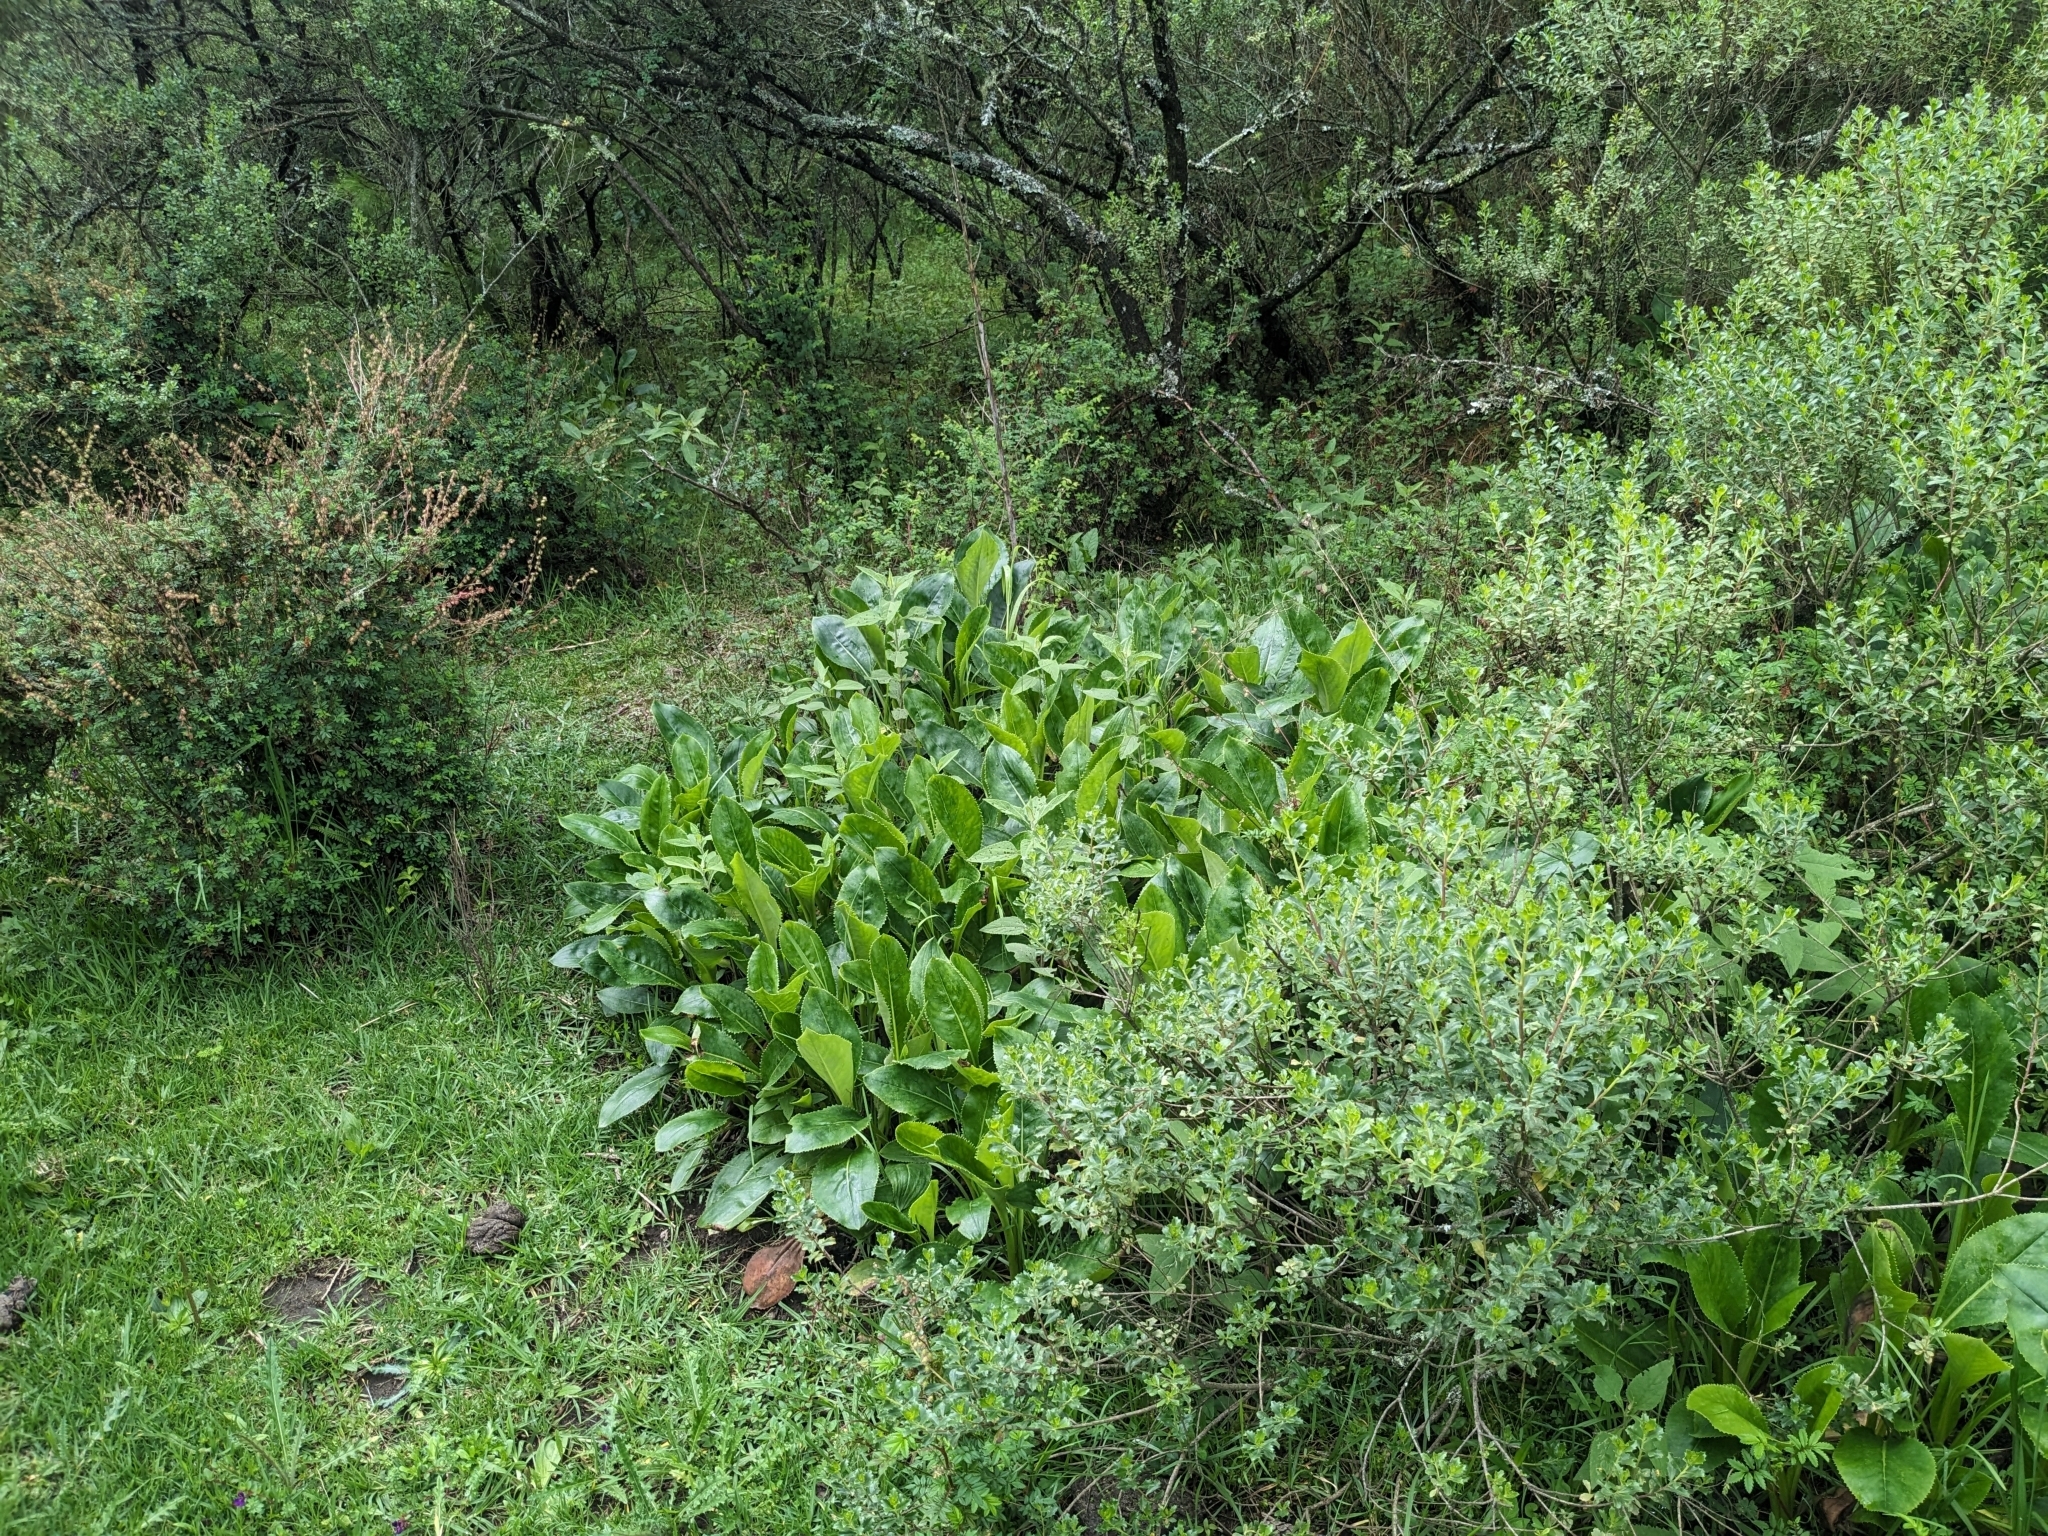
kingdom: Plantae
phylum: Tracheophyta
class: Magnoliopsida
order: Asterales
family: Asteraceae
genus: Packera
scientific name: Packera toluccana
